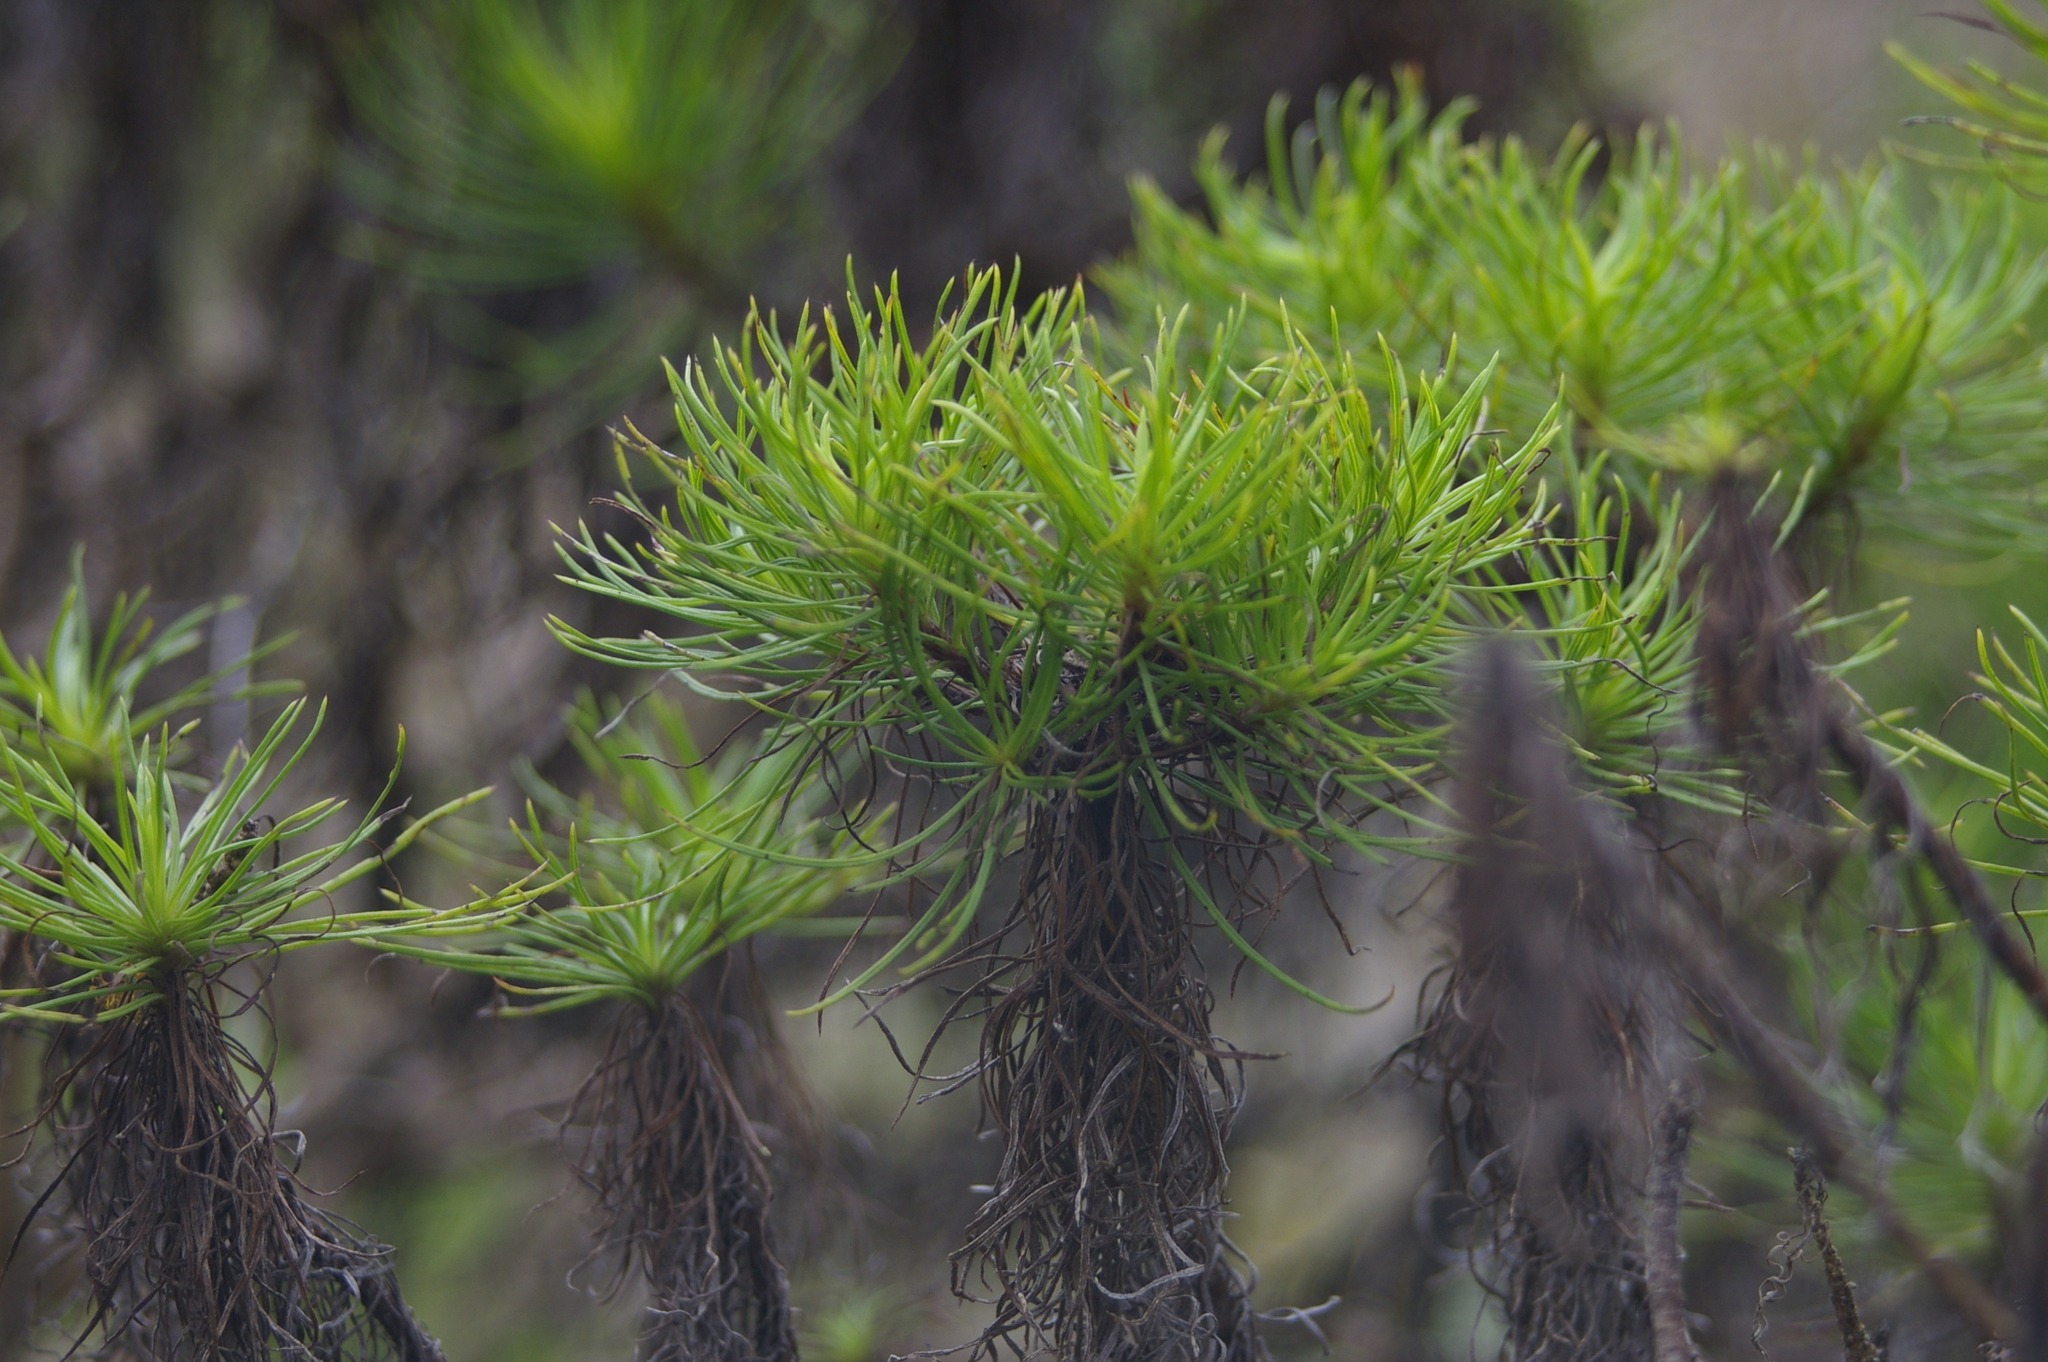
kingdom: Plantae
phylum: Tracheophyta
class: Magnoliopsida
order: Asterales
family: Asteraceae
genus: Erigeron
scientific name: Erigeron tenuifolius
